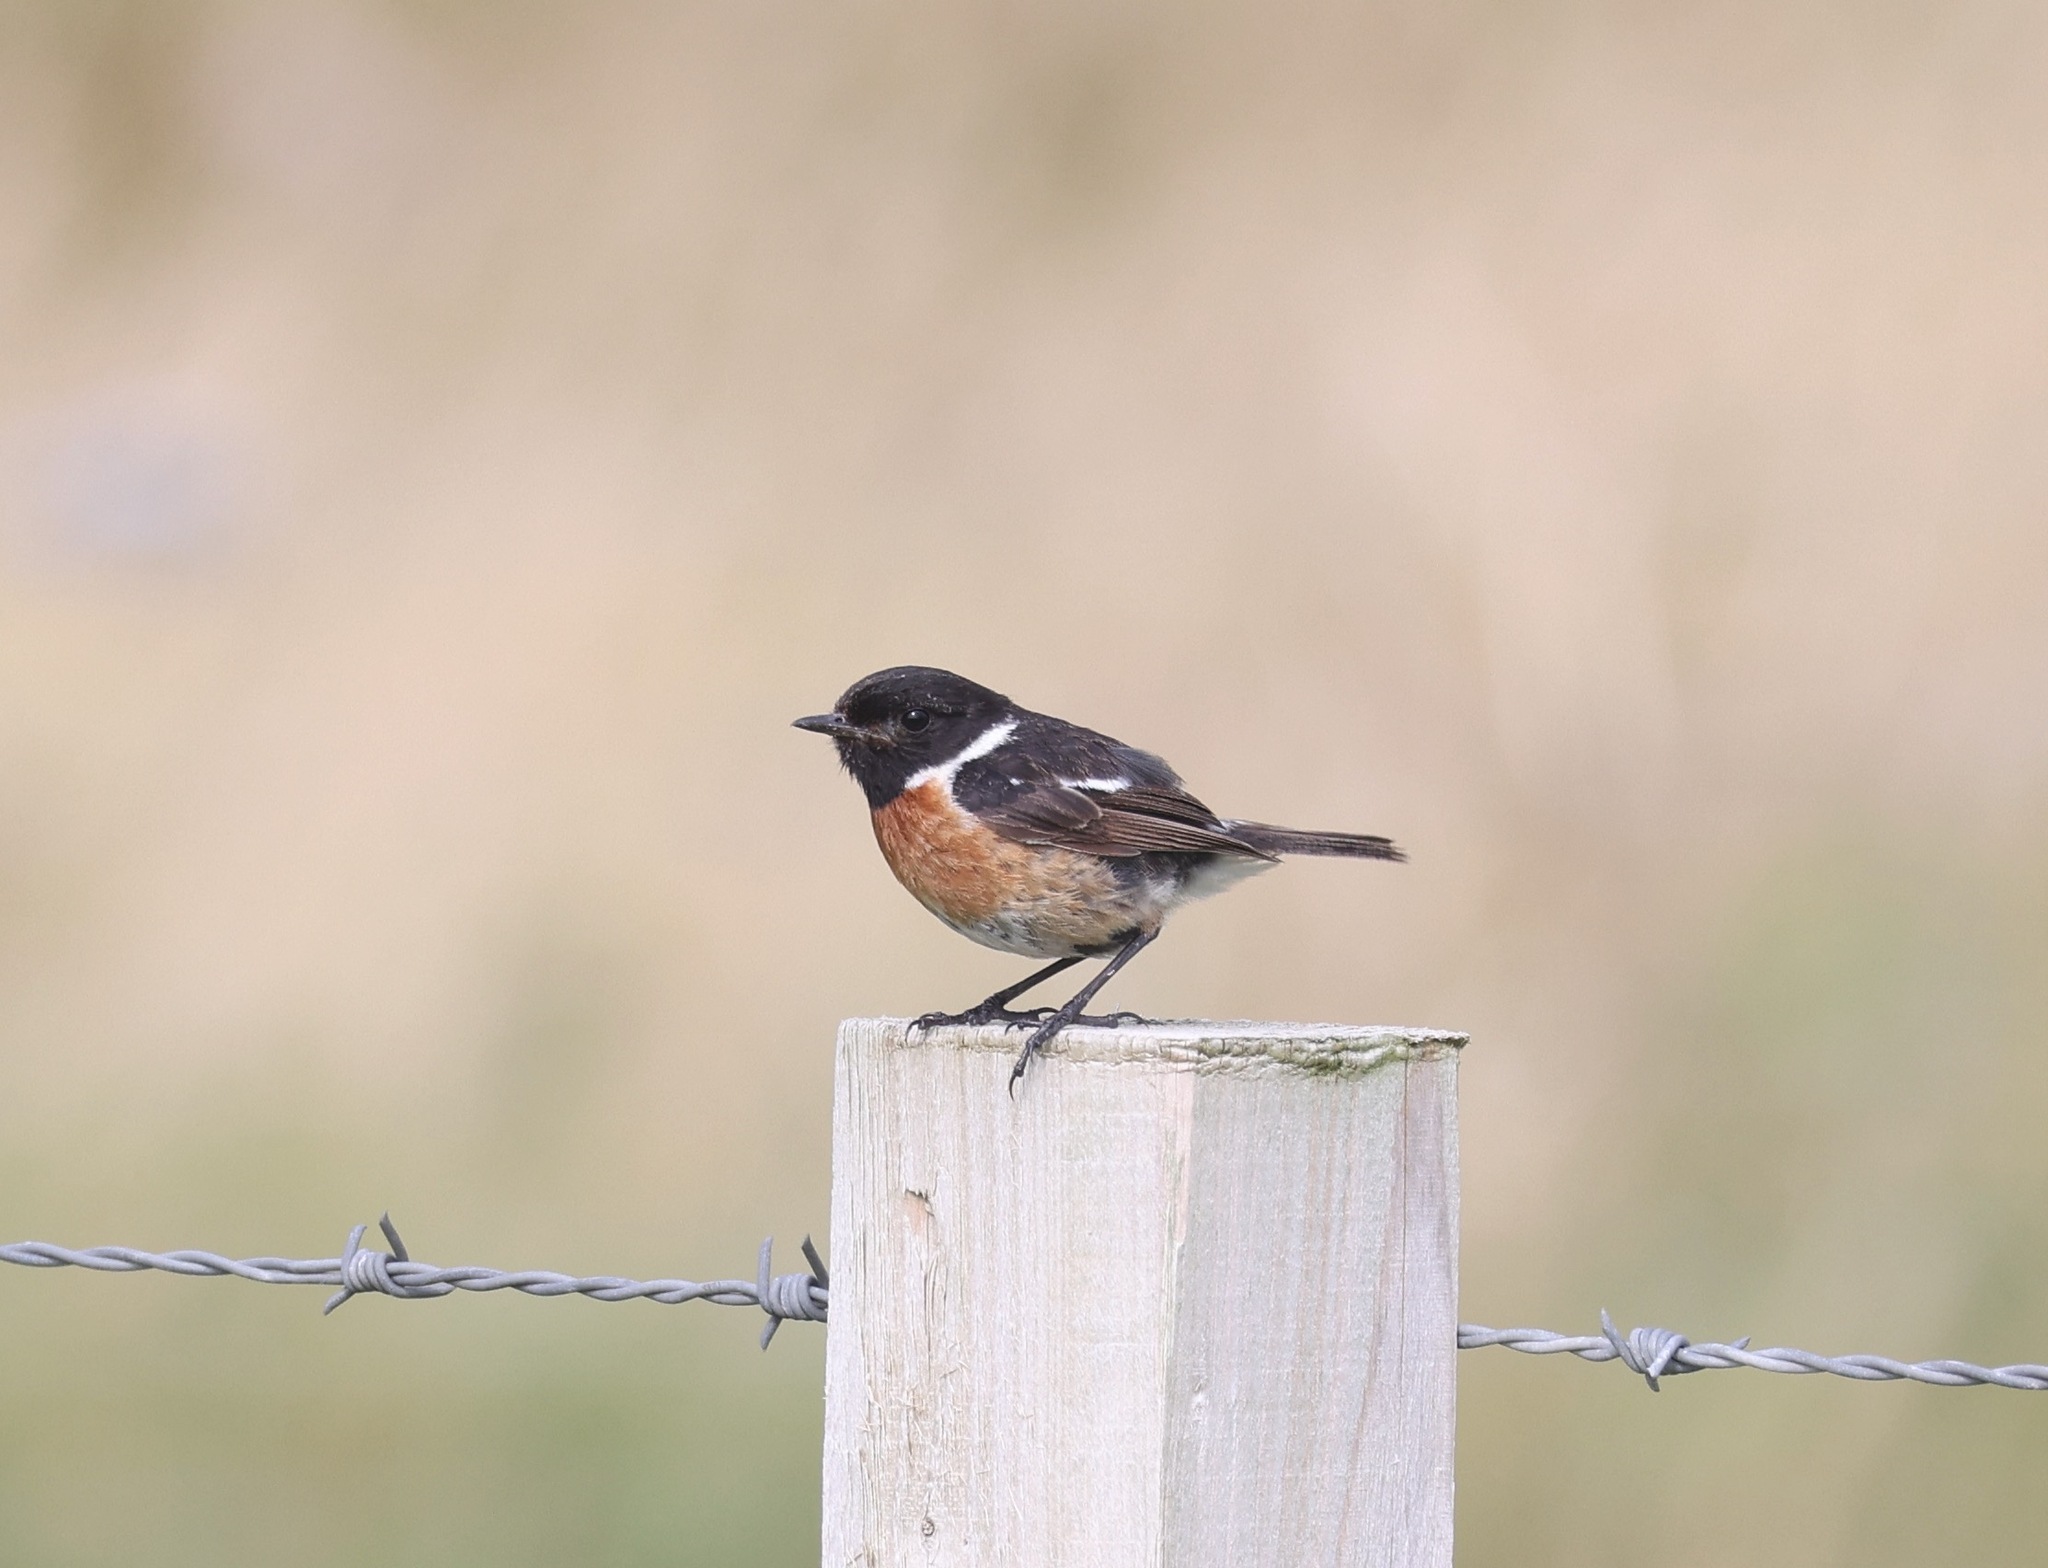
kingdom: Animalia
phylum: Chordata
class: Aves
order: Passeriformes
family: Muscicapidae
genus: Saxicola
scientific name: Saxicola rubicola
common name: European stonechat
